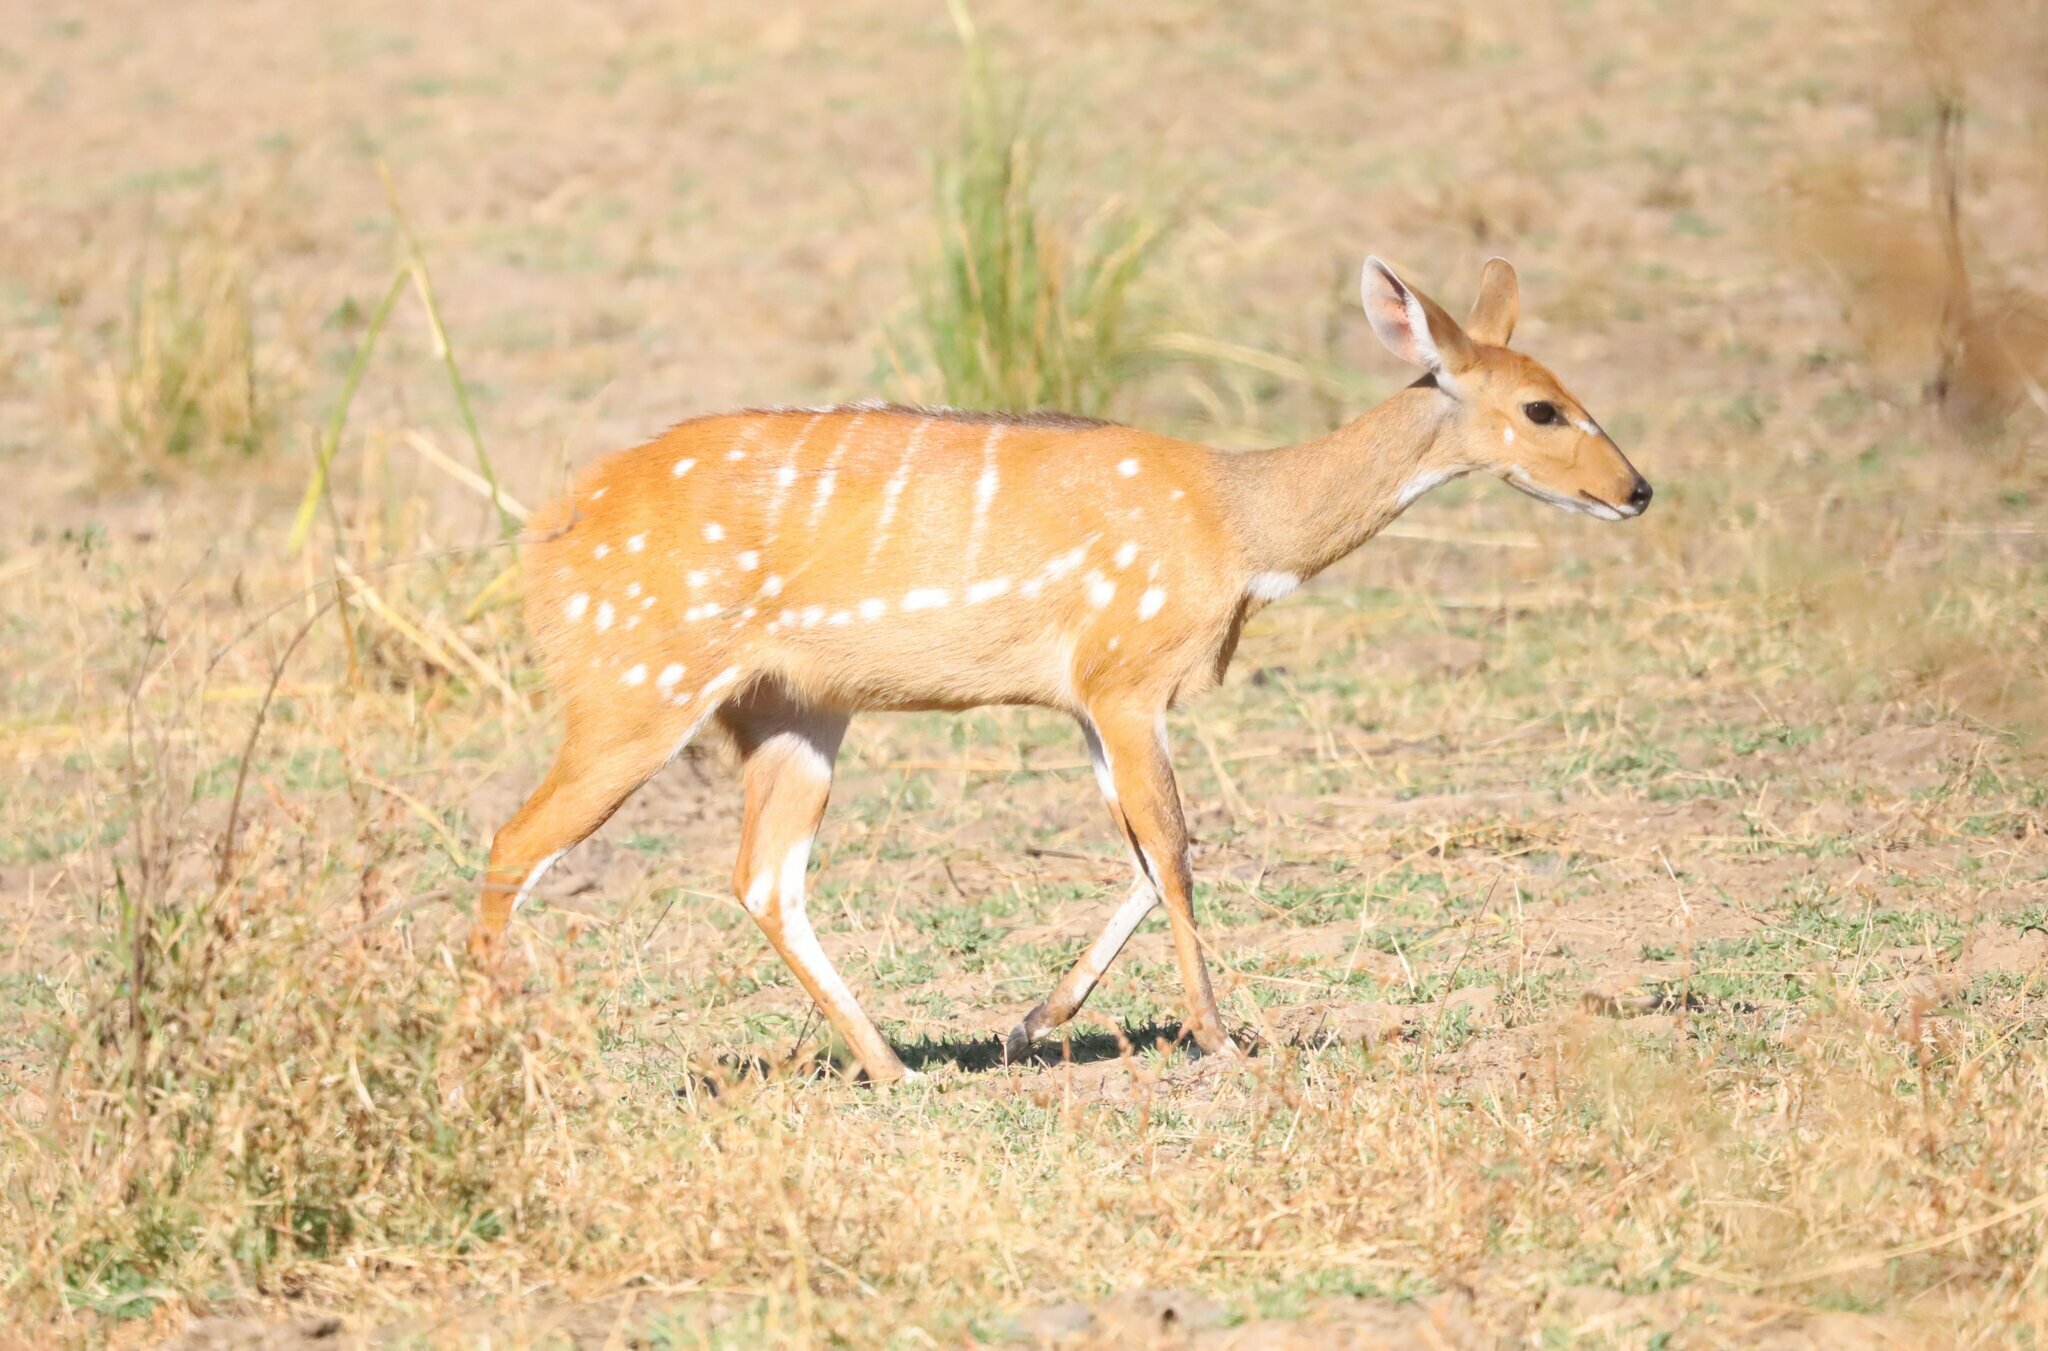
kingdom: Animalia
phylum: Chordata
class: Mammalia
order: Artiodactyla
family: Bovidae
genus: Tragelaphus
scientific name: Tragelaphus scriptus
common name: Bushbuck
